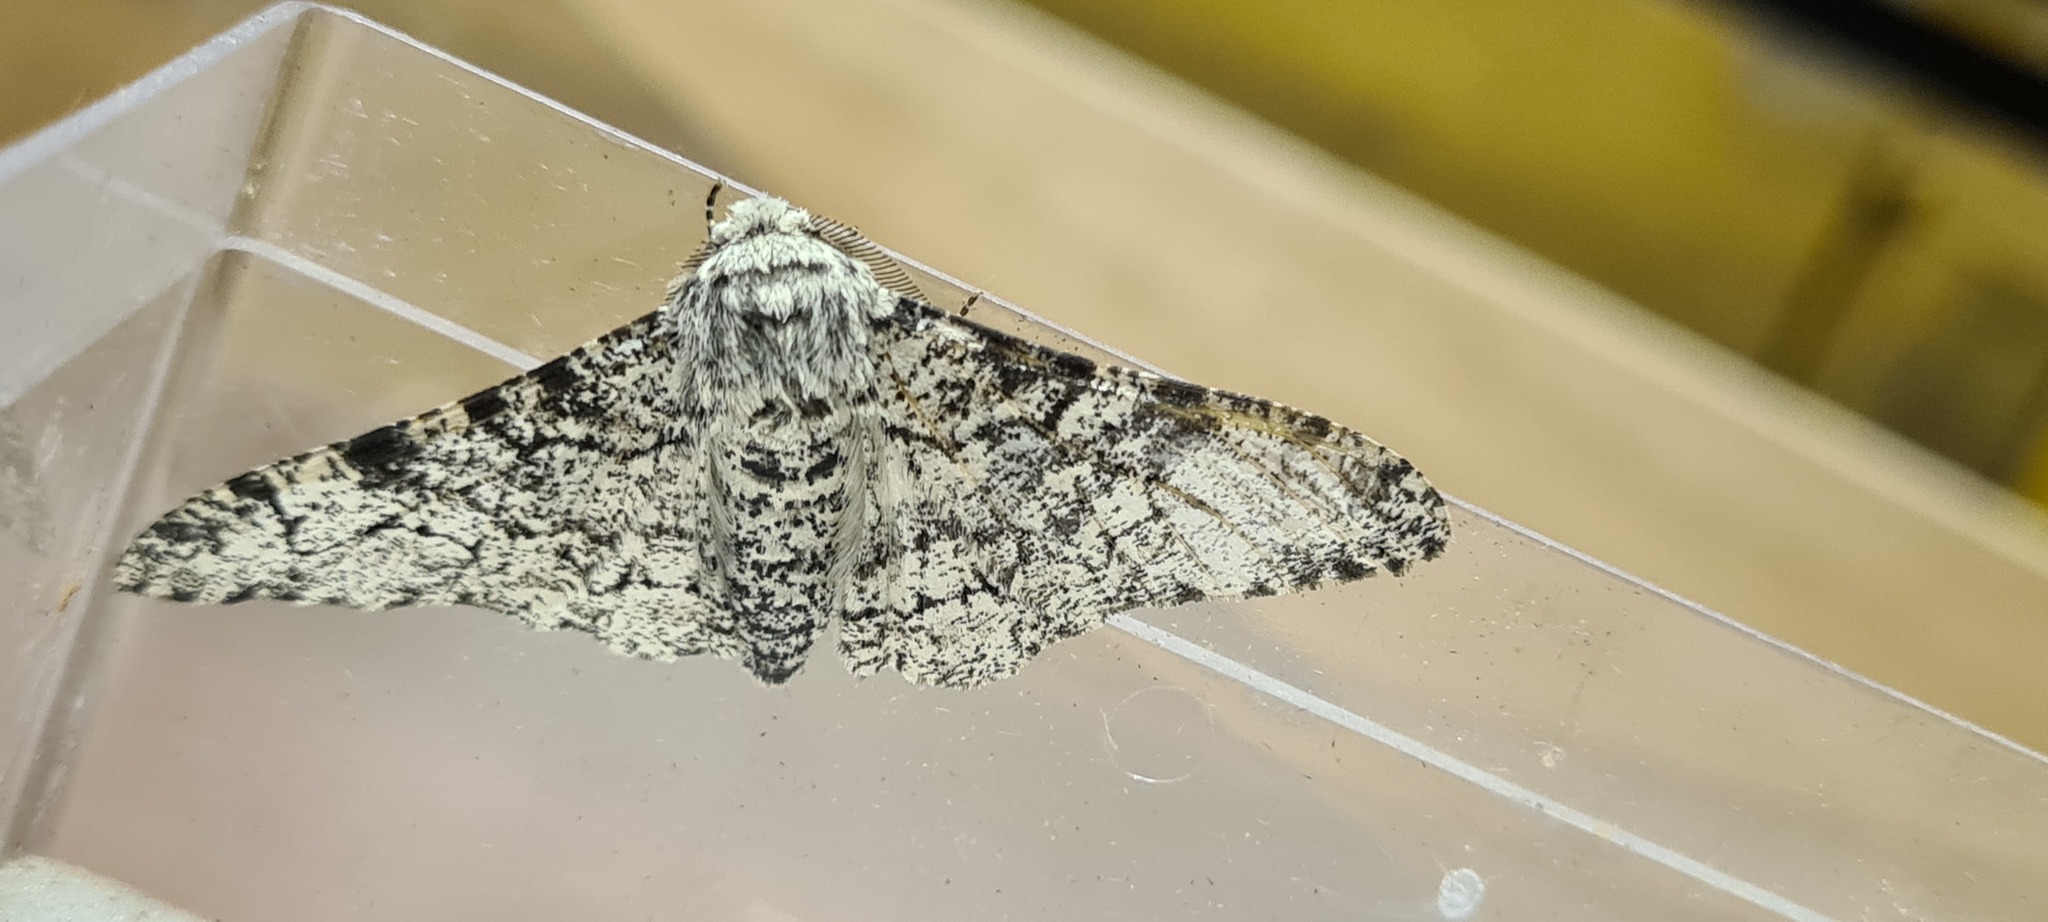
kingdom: Animalia
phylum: Arthropoda
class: Insecta
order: Lepidoptera
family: Geometridae
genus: Biston
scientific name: Biston betularia
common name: Peppered moth
